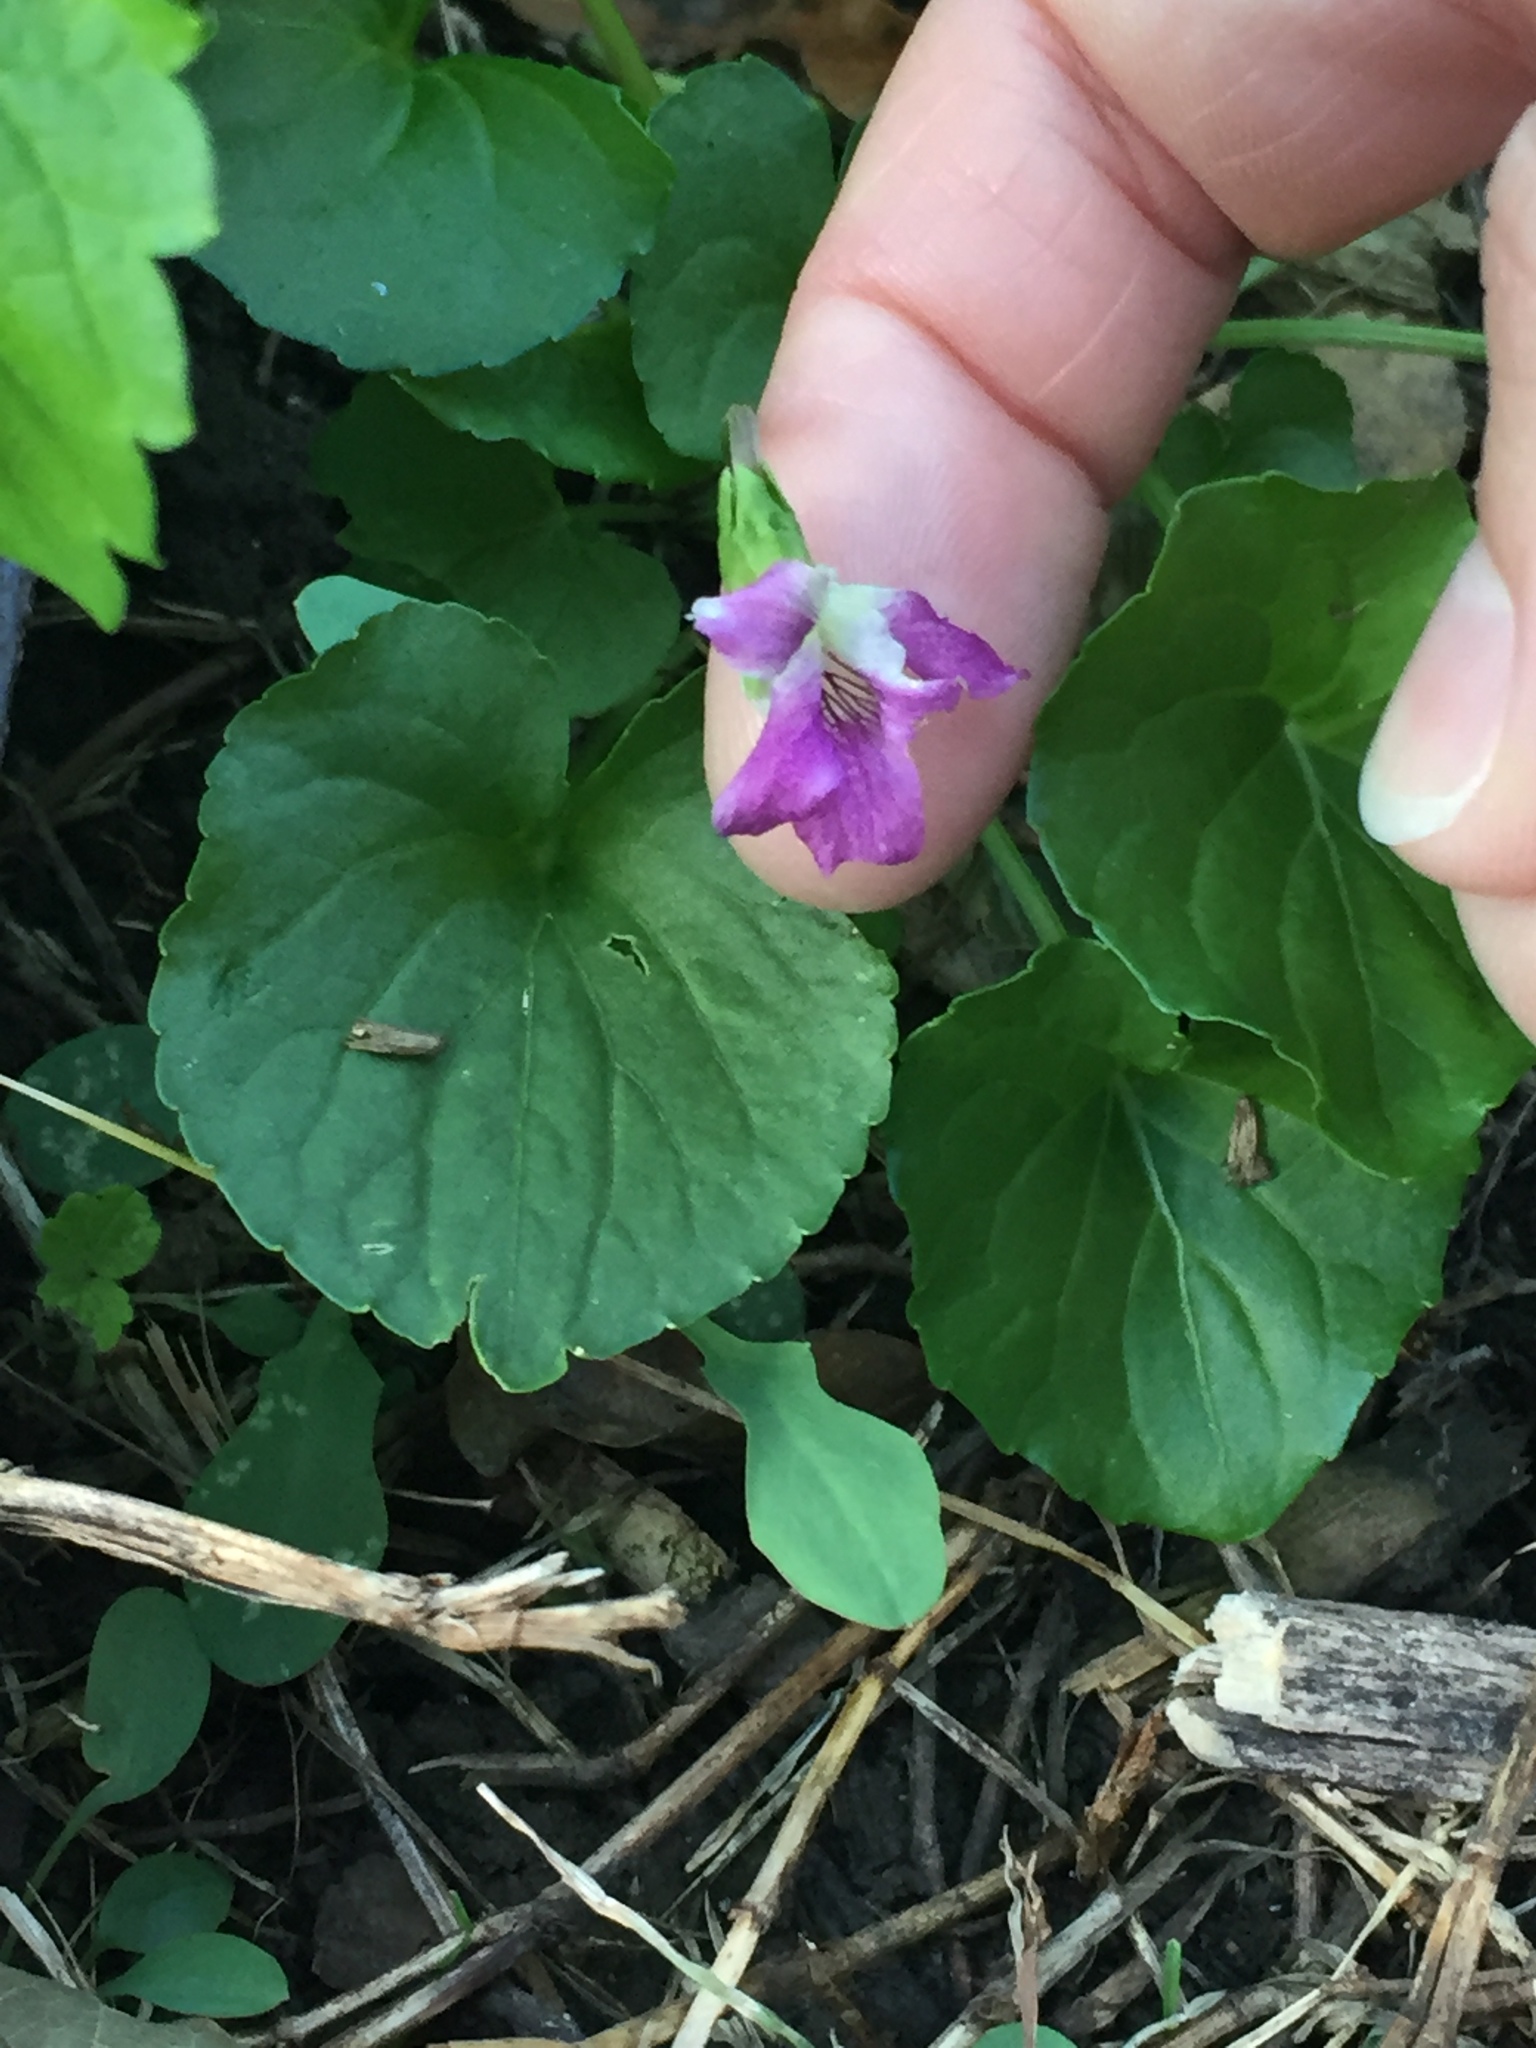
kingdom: Plantae
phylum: Tracheophyta
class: Magnoliopsida
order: Malpighiales
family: Violaceae
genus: Viola
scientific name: Viola sororia
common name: Dooryard violet
